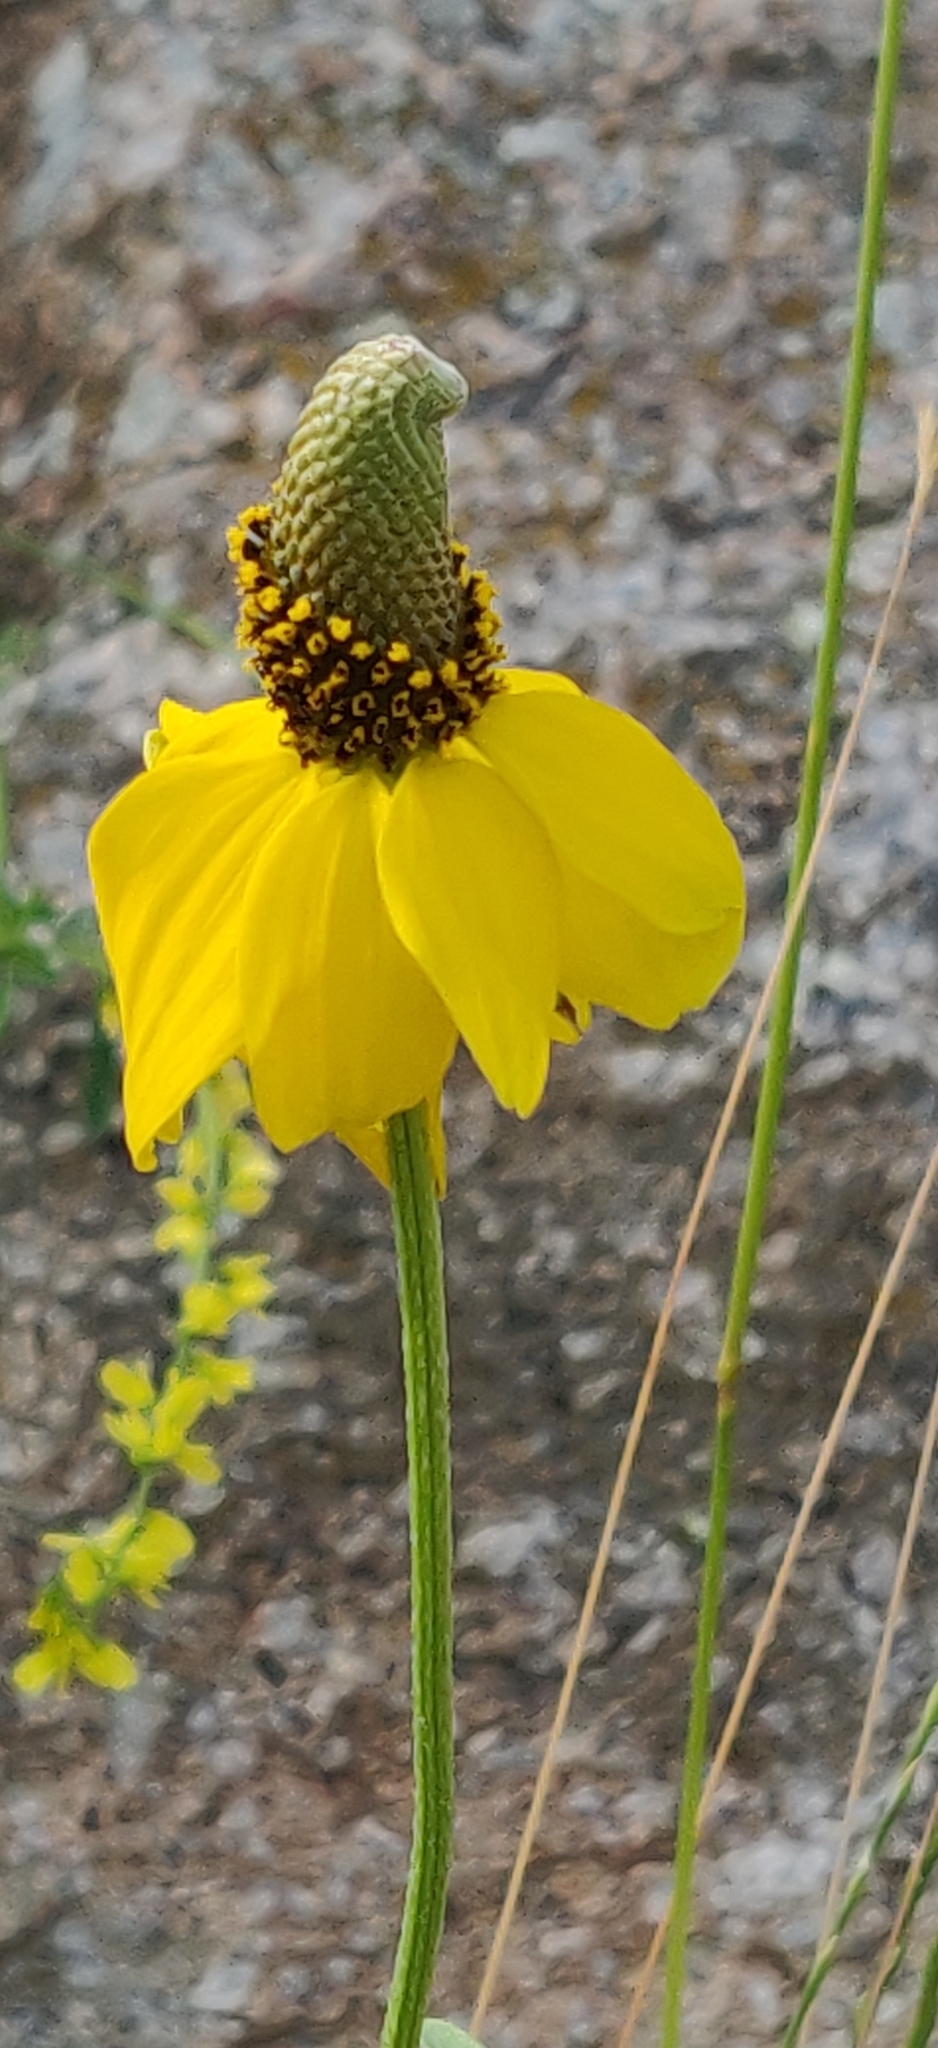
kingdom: Plantae
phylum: Tracheophyta
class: Magnoliopsida
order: Asterales
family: Asteraceae
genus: Ratibida
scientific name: Ratibida columnifera
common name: Prairie coneflower
